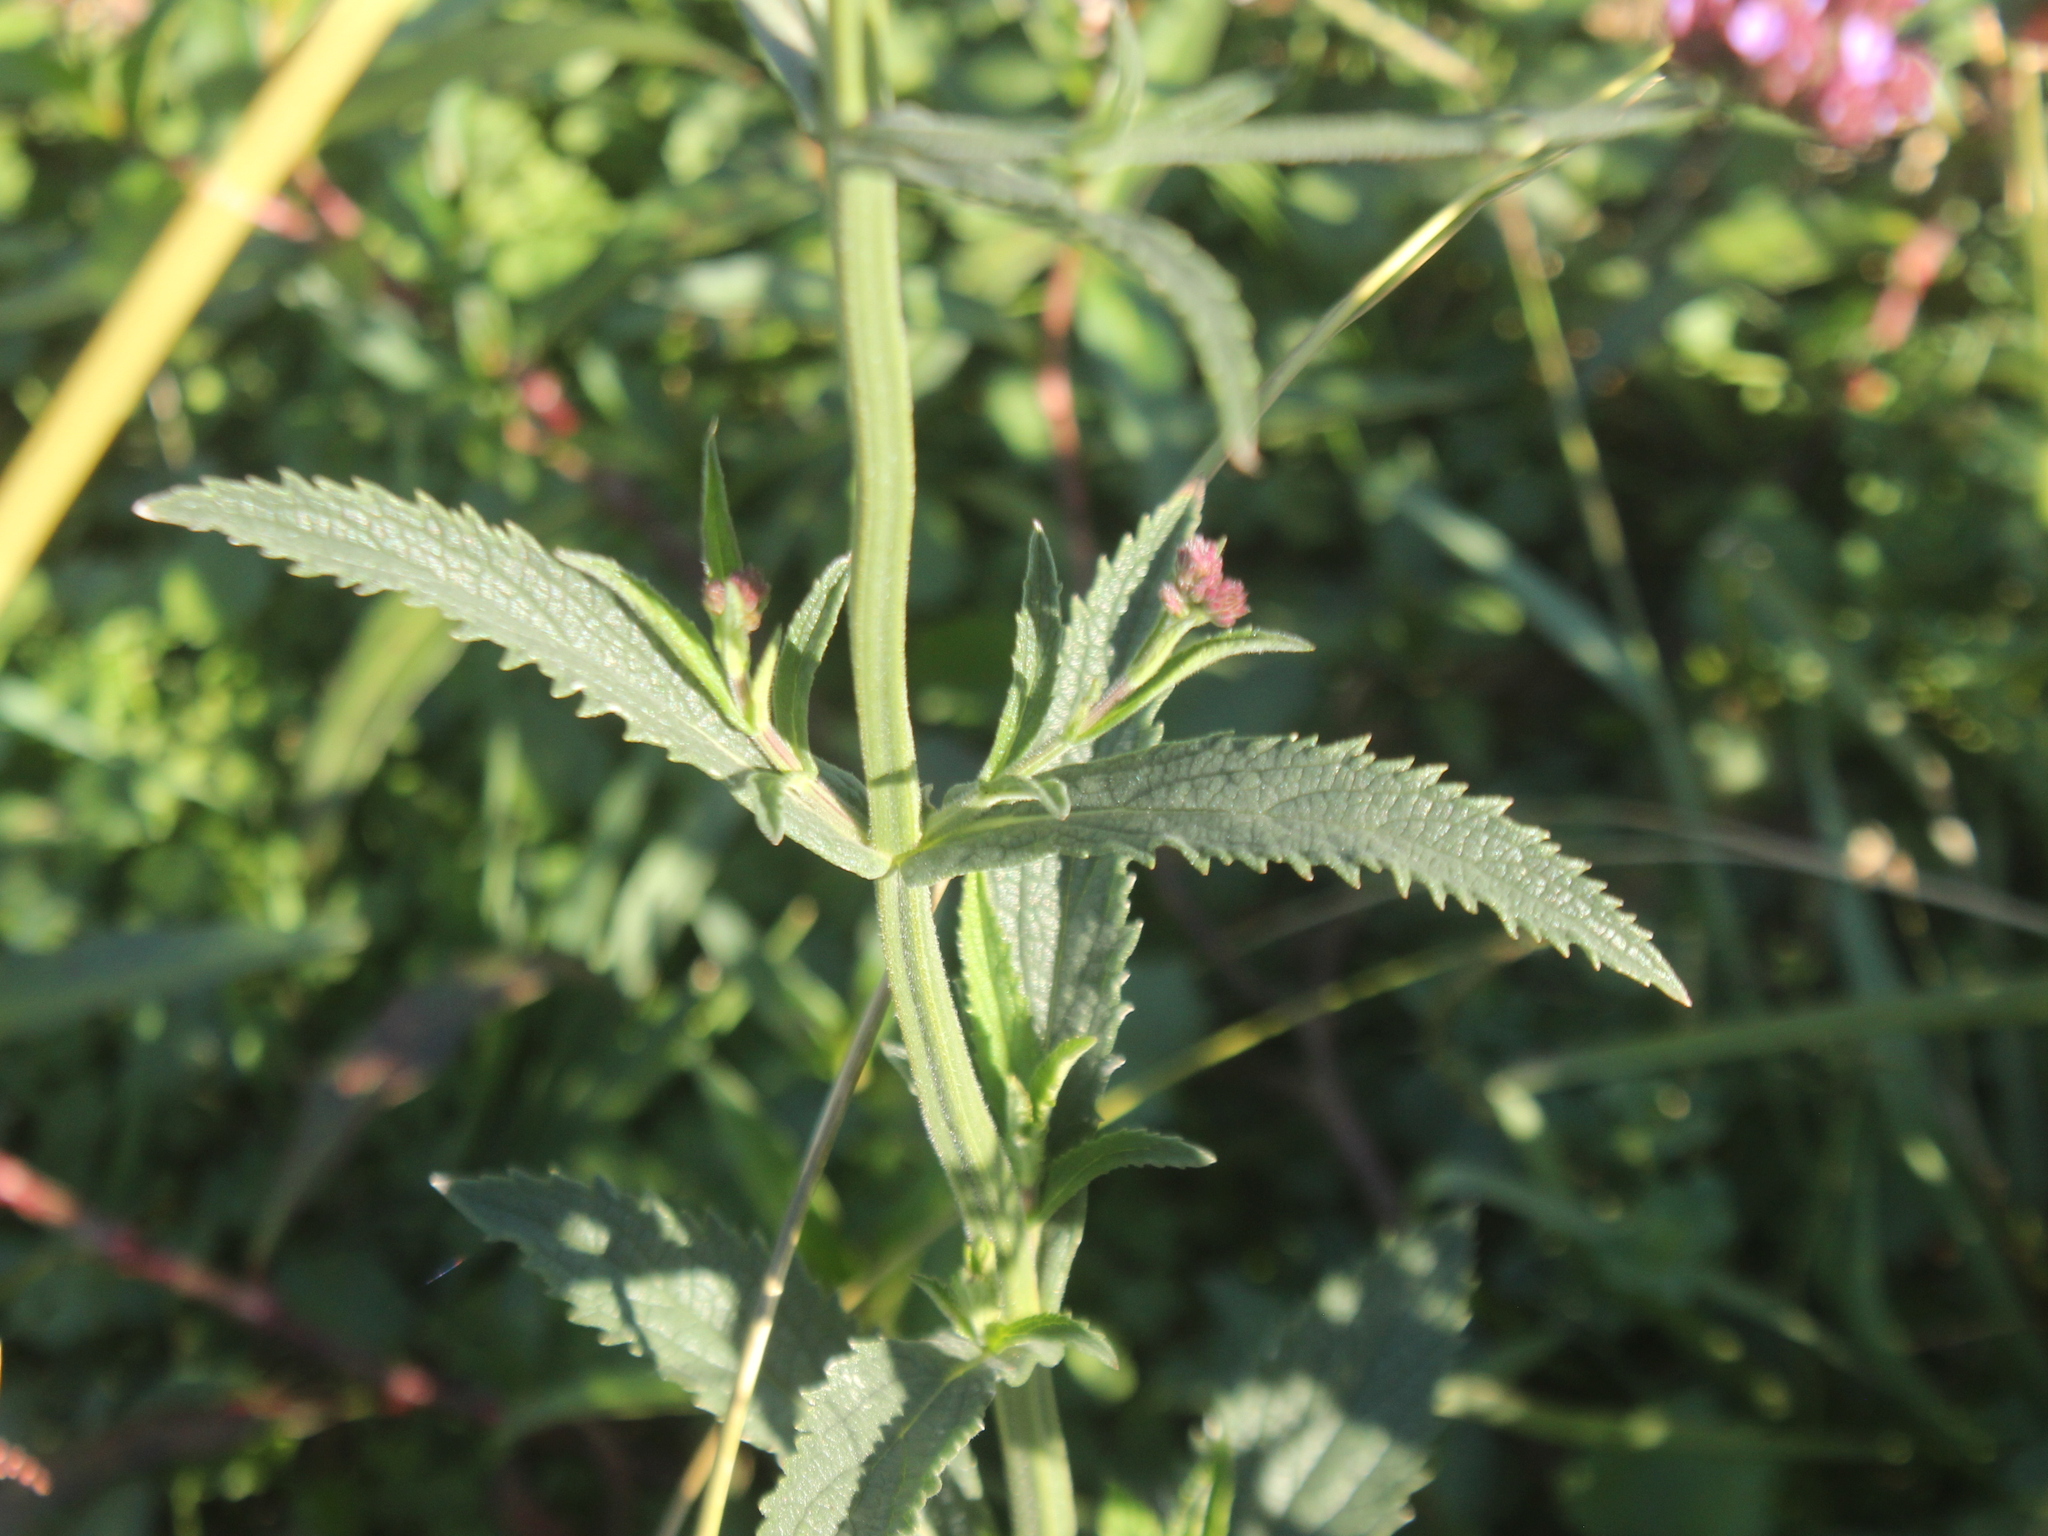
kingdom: Plantae
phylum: Tracheophyta
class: Magnoliopsida
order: Lamiales
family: Verbenaceae
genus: Verbena
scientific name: Verbena incompta
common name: Purpletop vervain
